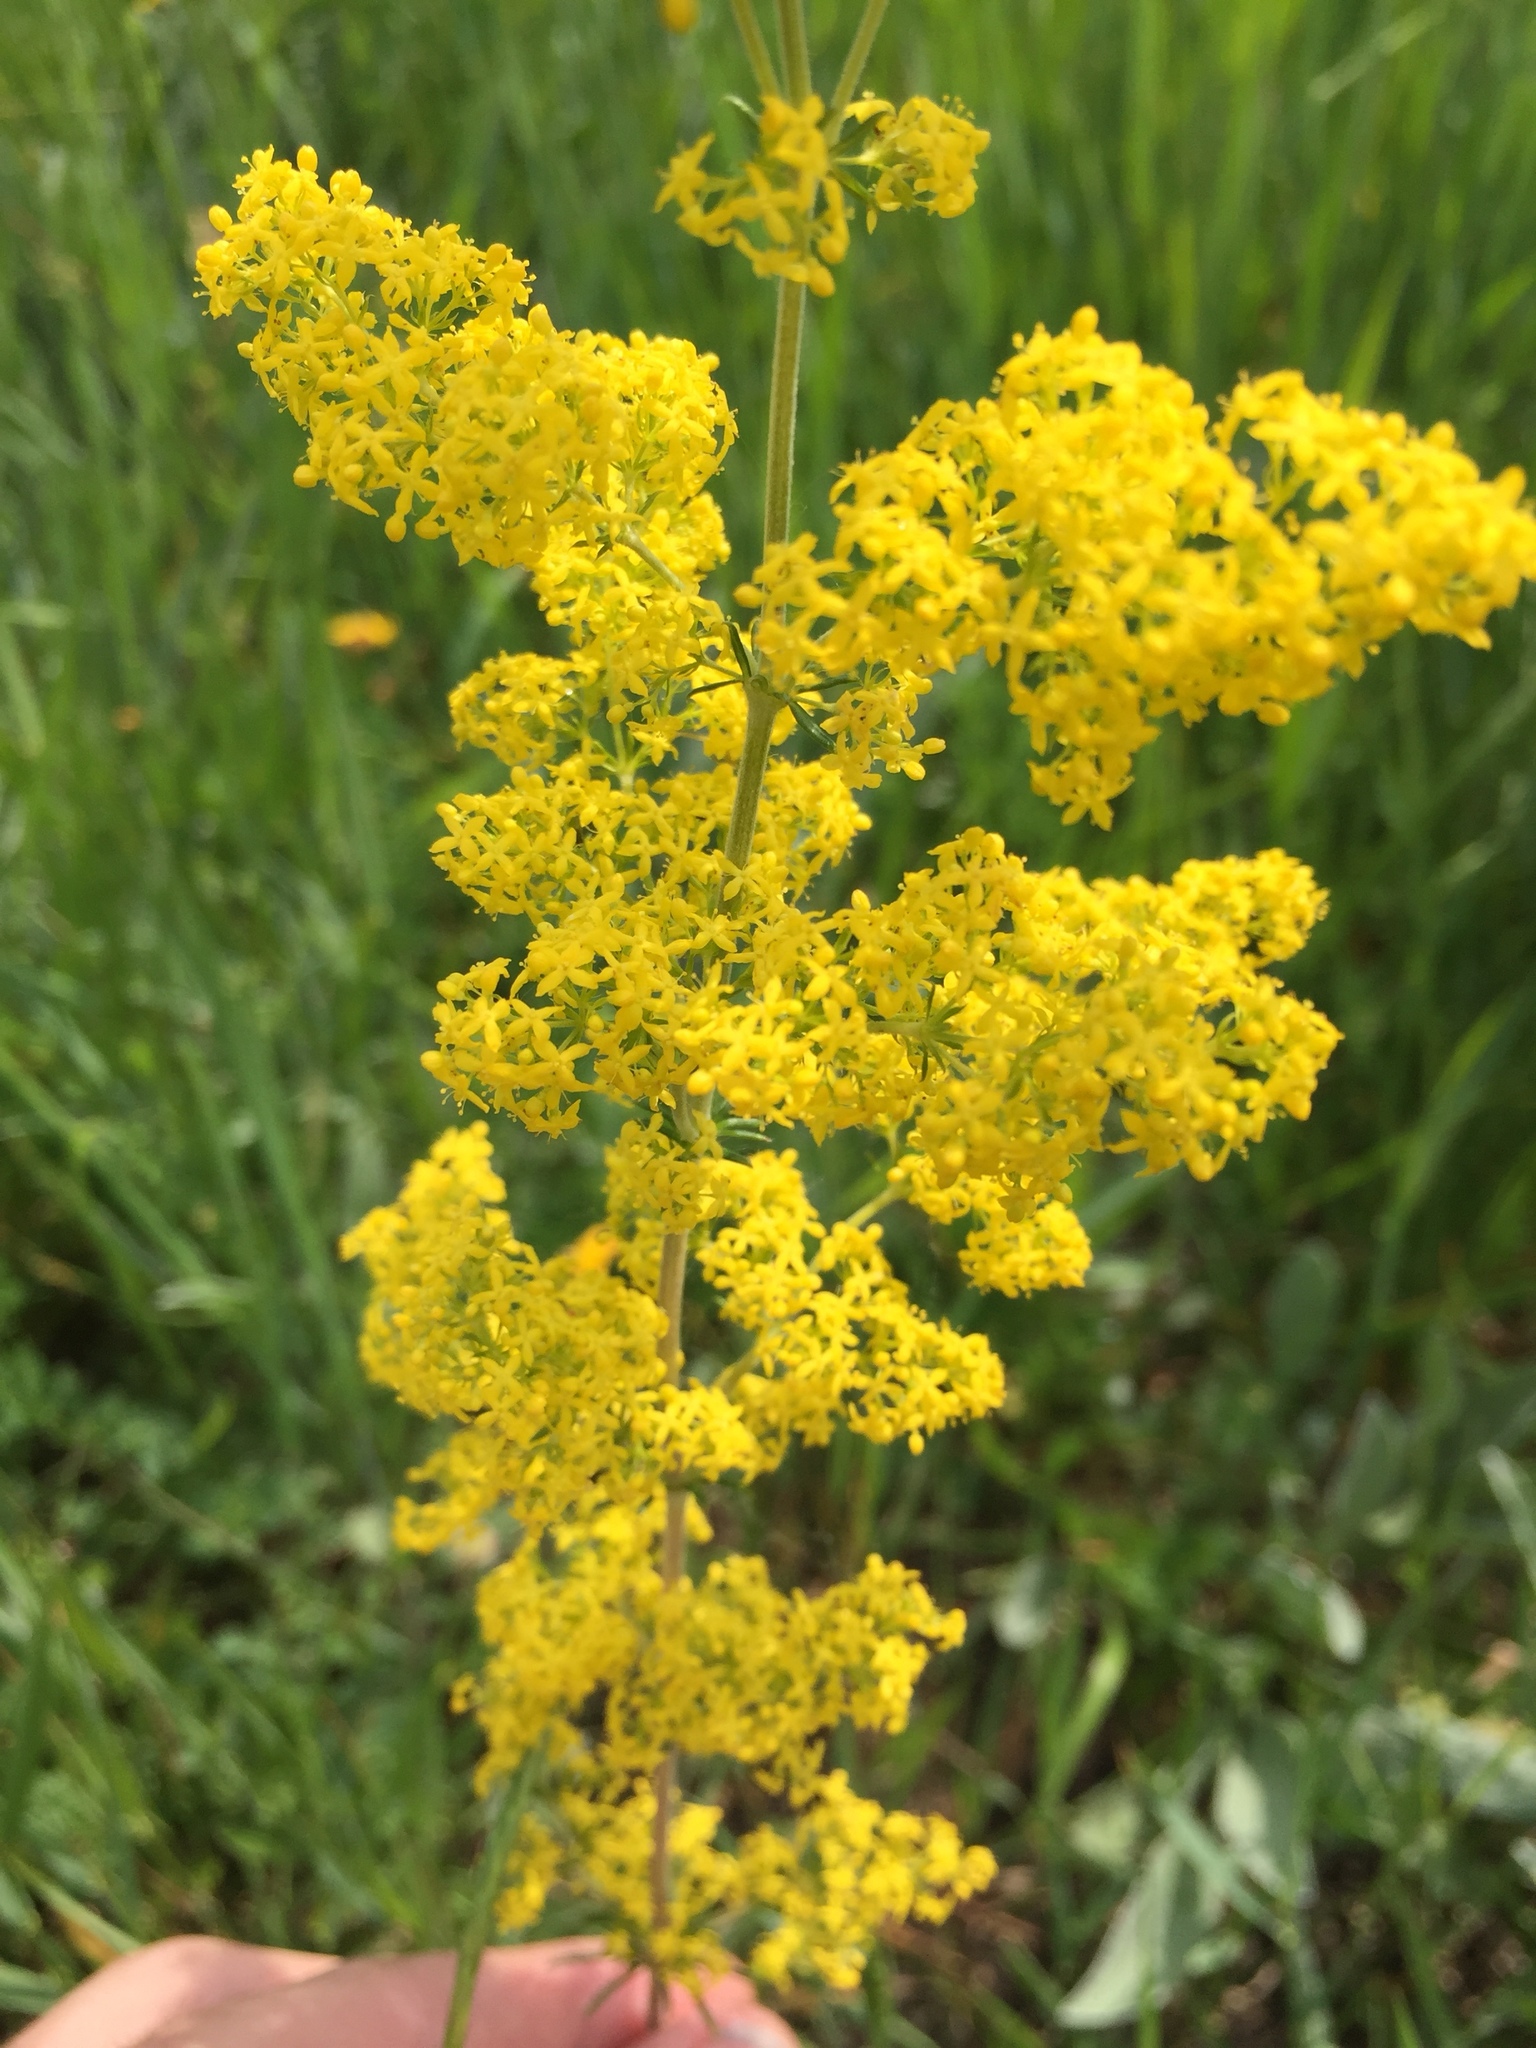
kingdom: Plantae
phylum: Tracheophyta
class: Magnoliopsida
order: Gentianales
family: Rubiaceae
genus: Galium
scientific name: Galium verum
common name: Lady's bedstraw
